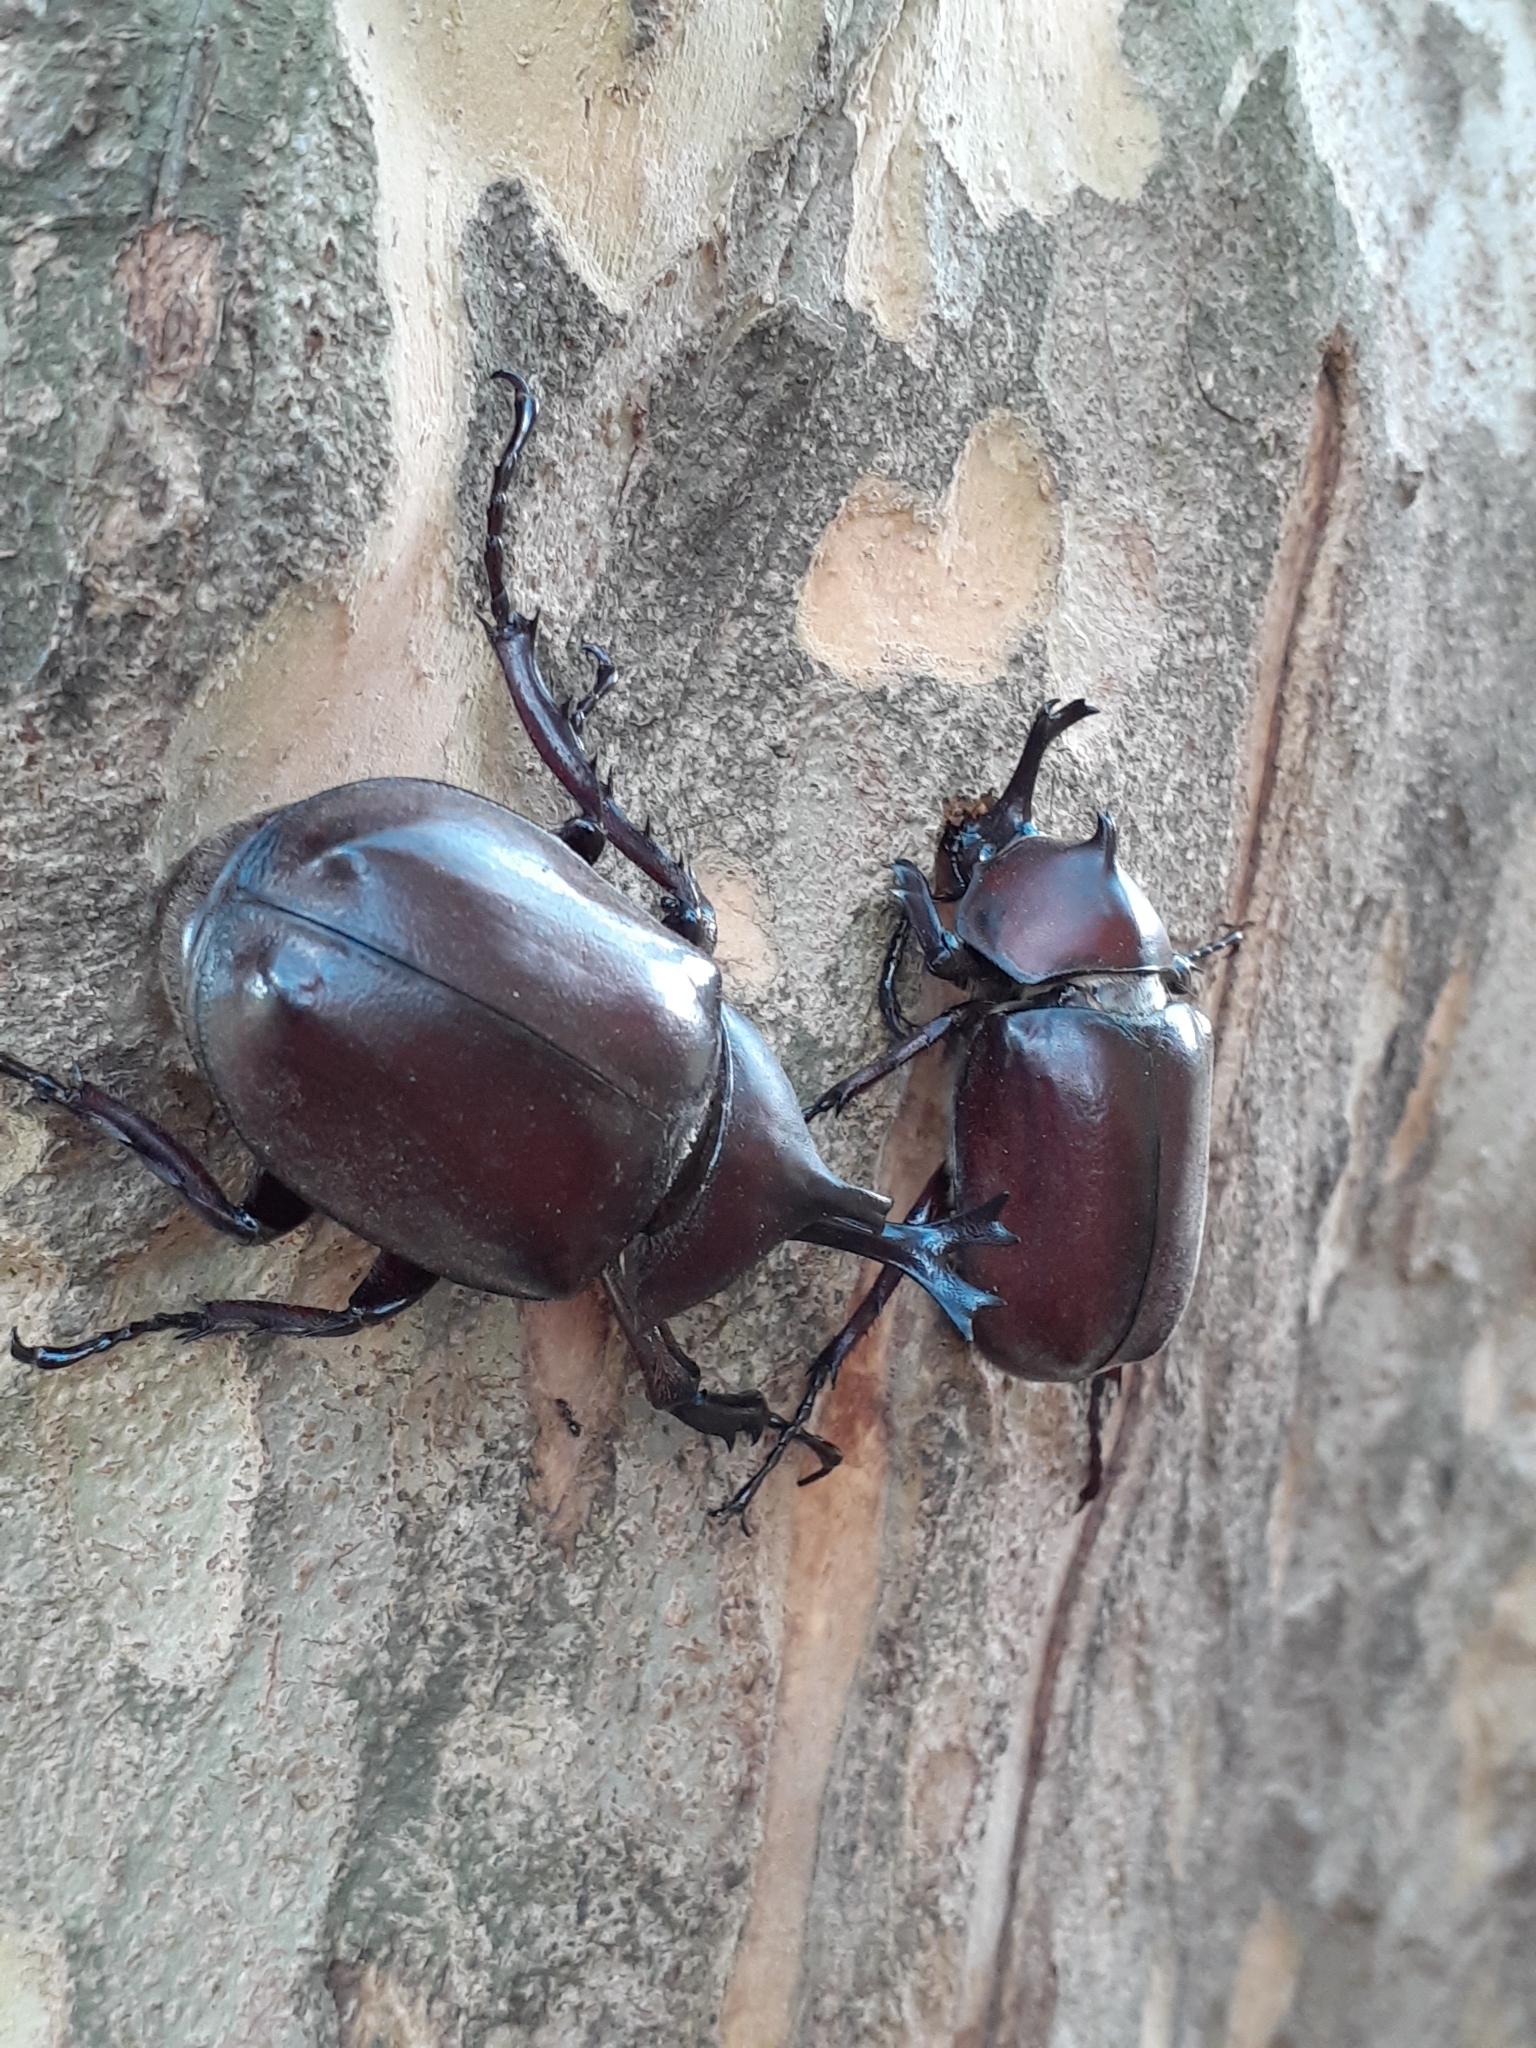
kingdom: Animalia
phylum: Arthropoda
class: Insecta
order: Coleoptera
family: Scarabaeidae
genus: Trypoxylus
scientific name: Trypoxylus dichotomus
